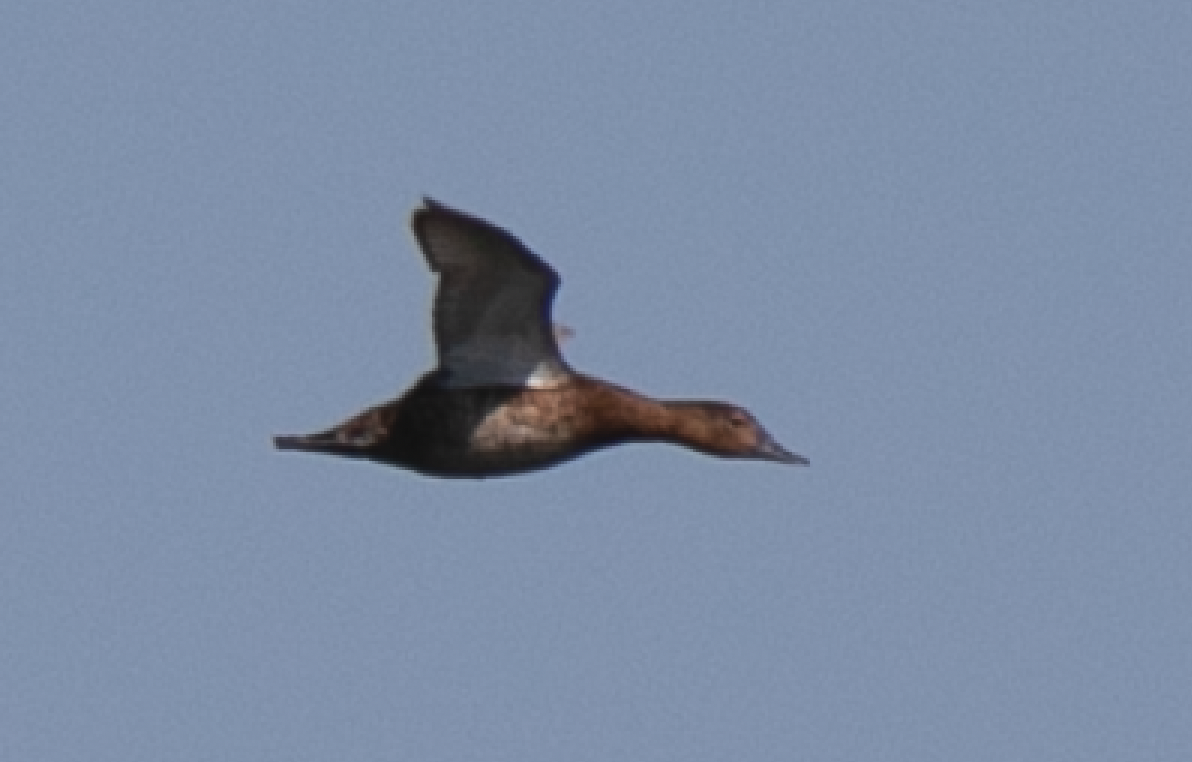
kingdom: Animalia
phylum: Chordata
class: Aves
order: Anseriformes
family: Anatidae
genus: Aythya
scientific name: Aythya ferina
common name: Common pochard
